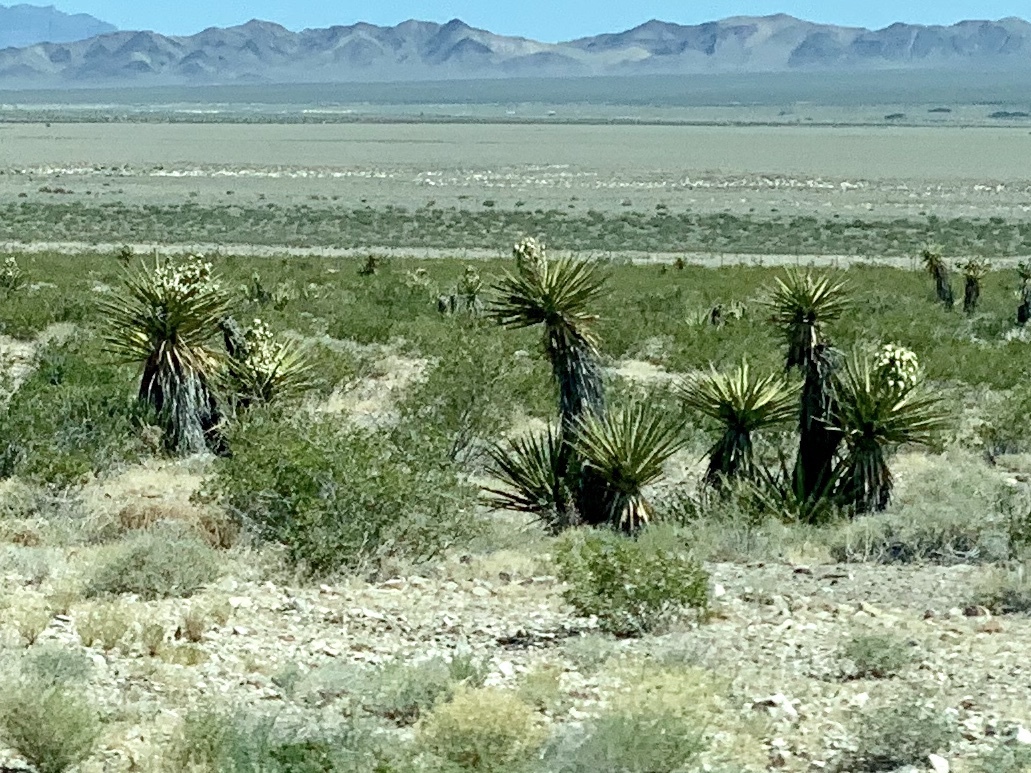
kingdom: Plantae
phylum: Tracheophyta
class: Liliopsida
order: Asparagales
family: Asparagaceae
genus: Yucca
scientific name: Yucca schidigera
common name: Mojave yucca
